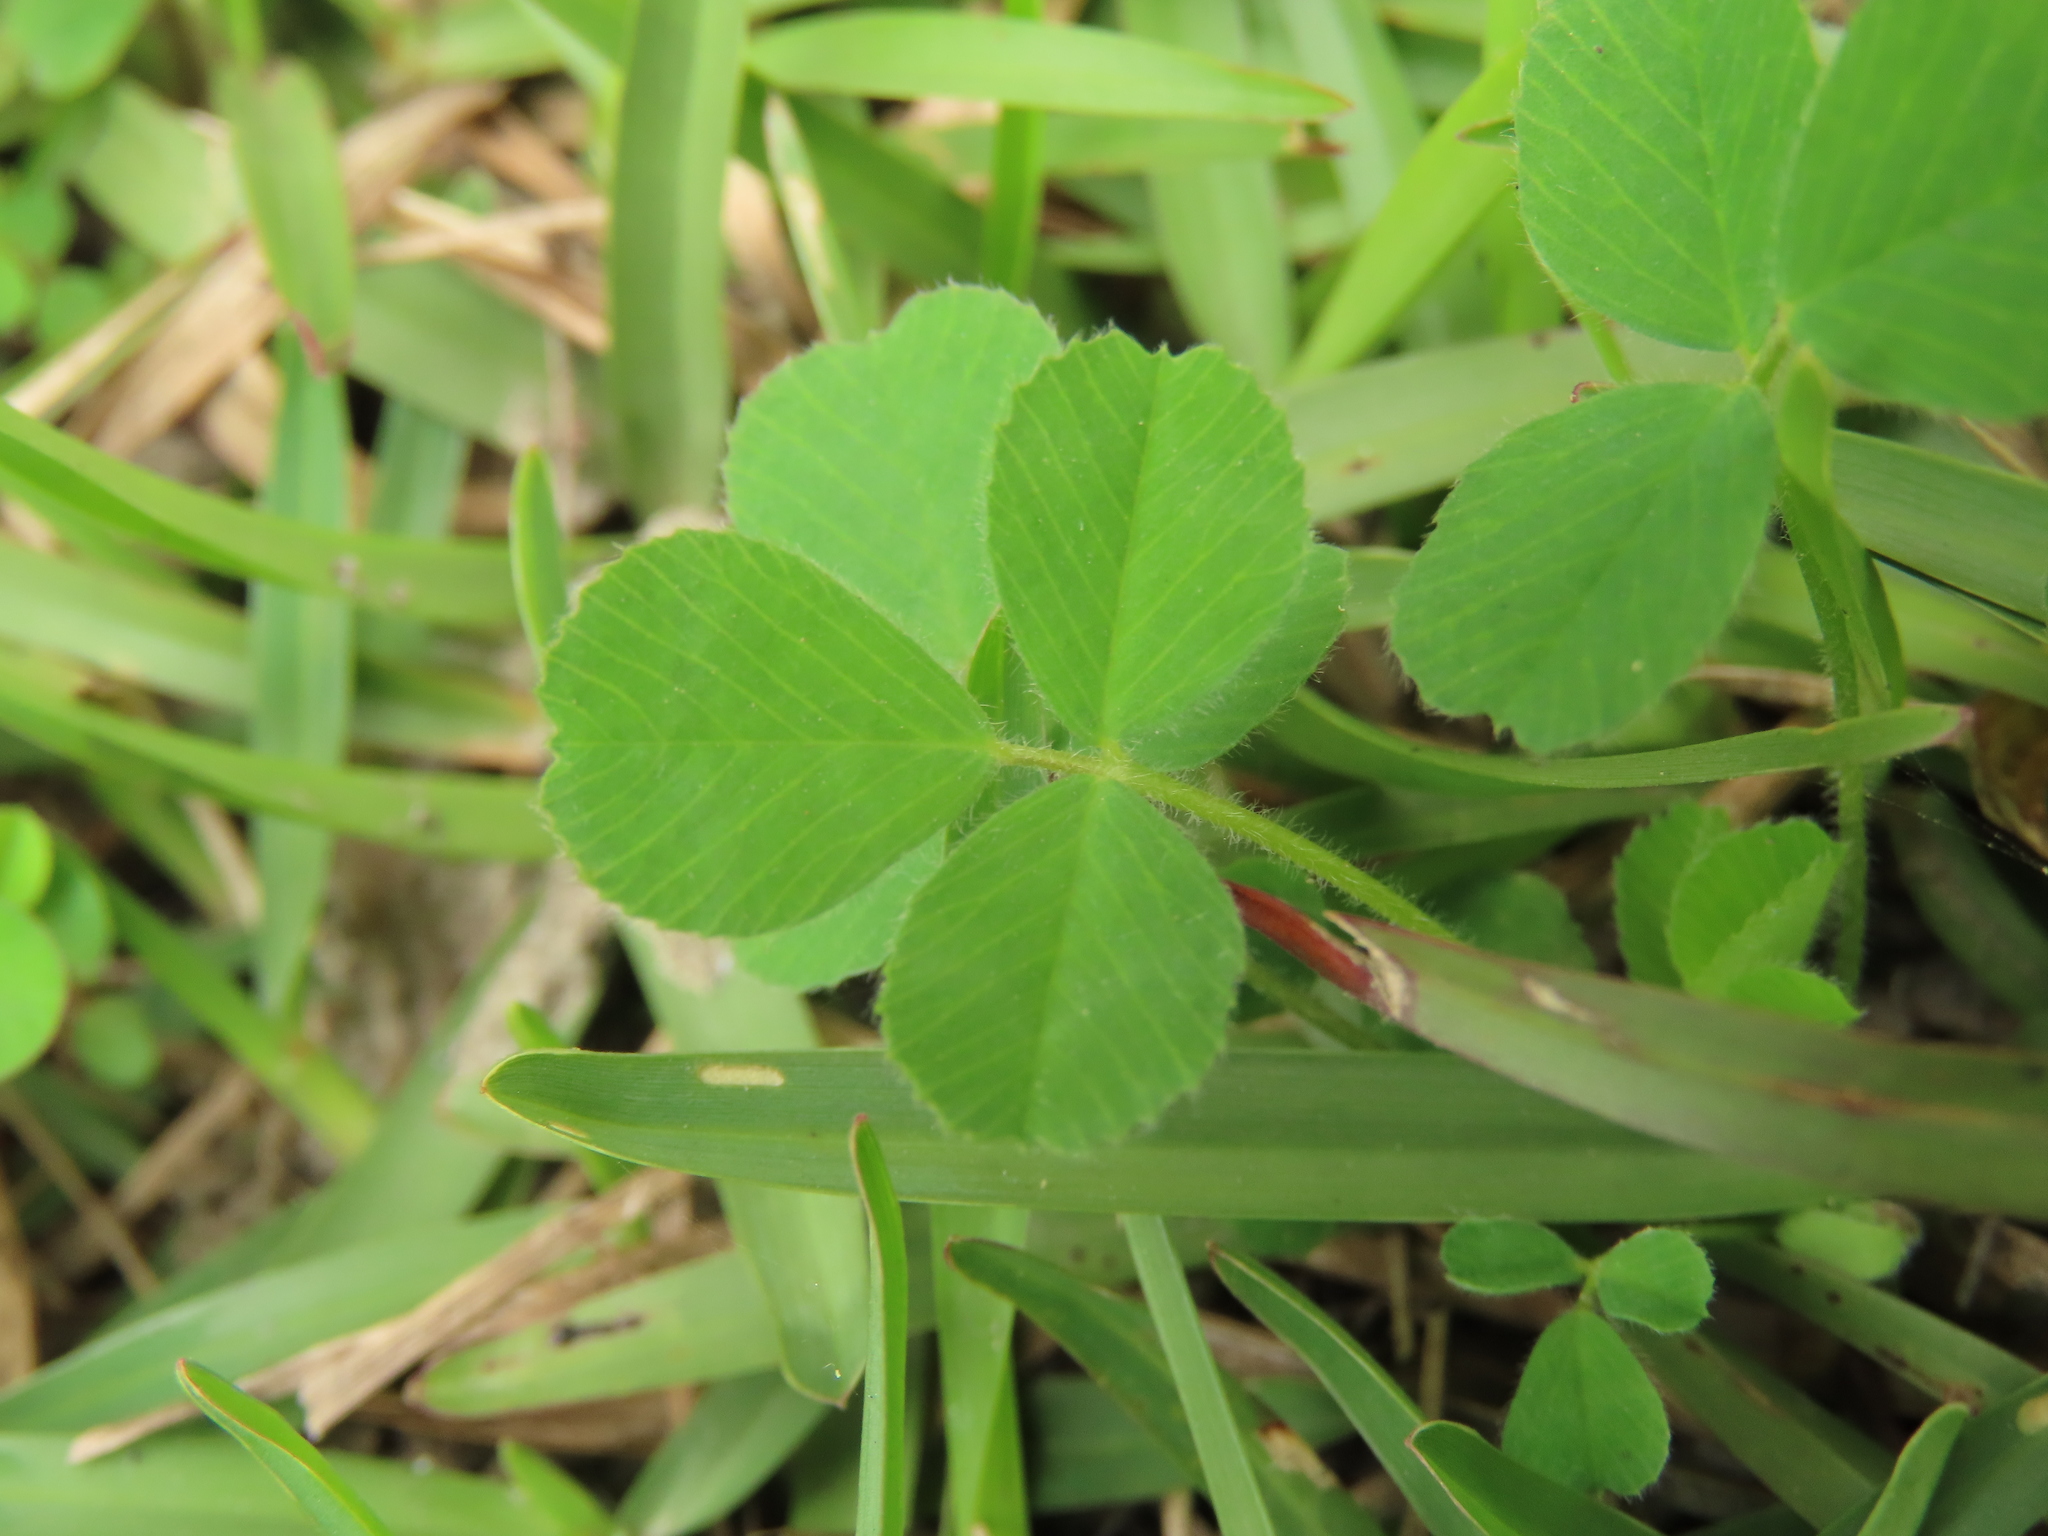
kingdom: Plantae
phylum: Tracheophyta
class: Magnoliopsida
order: Fabales
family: Fabaceae
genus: Medicago
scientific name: Medicago lupulina
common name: Black medick
